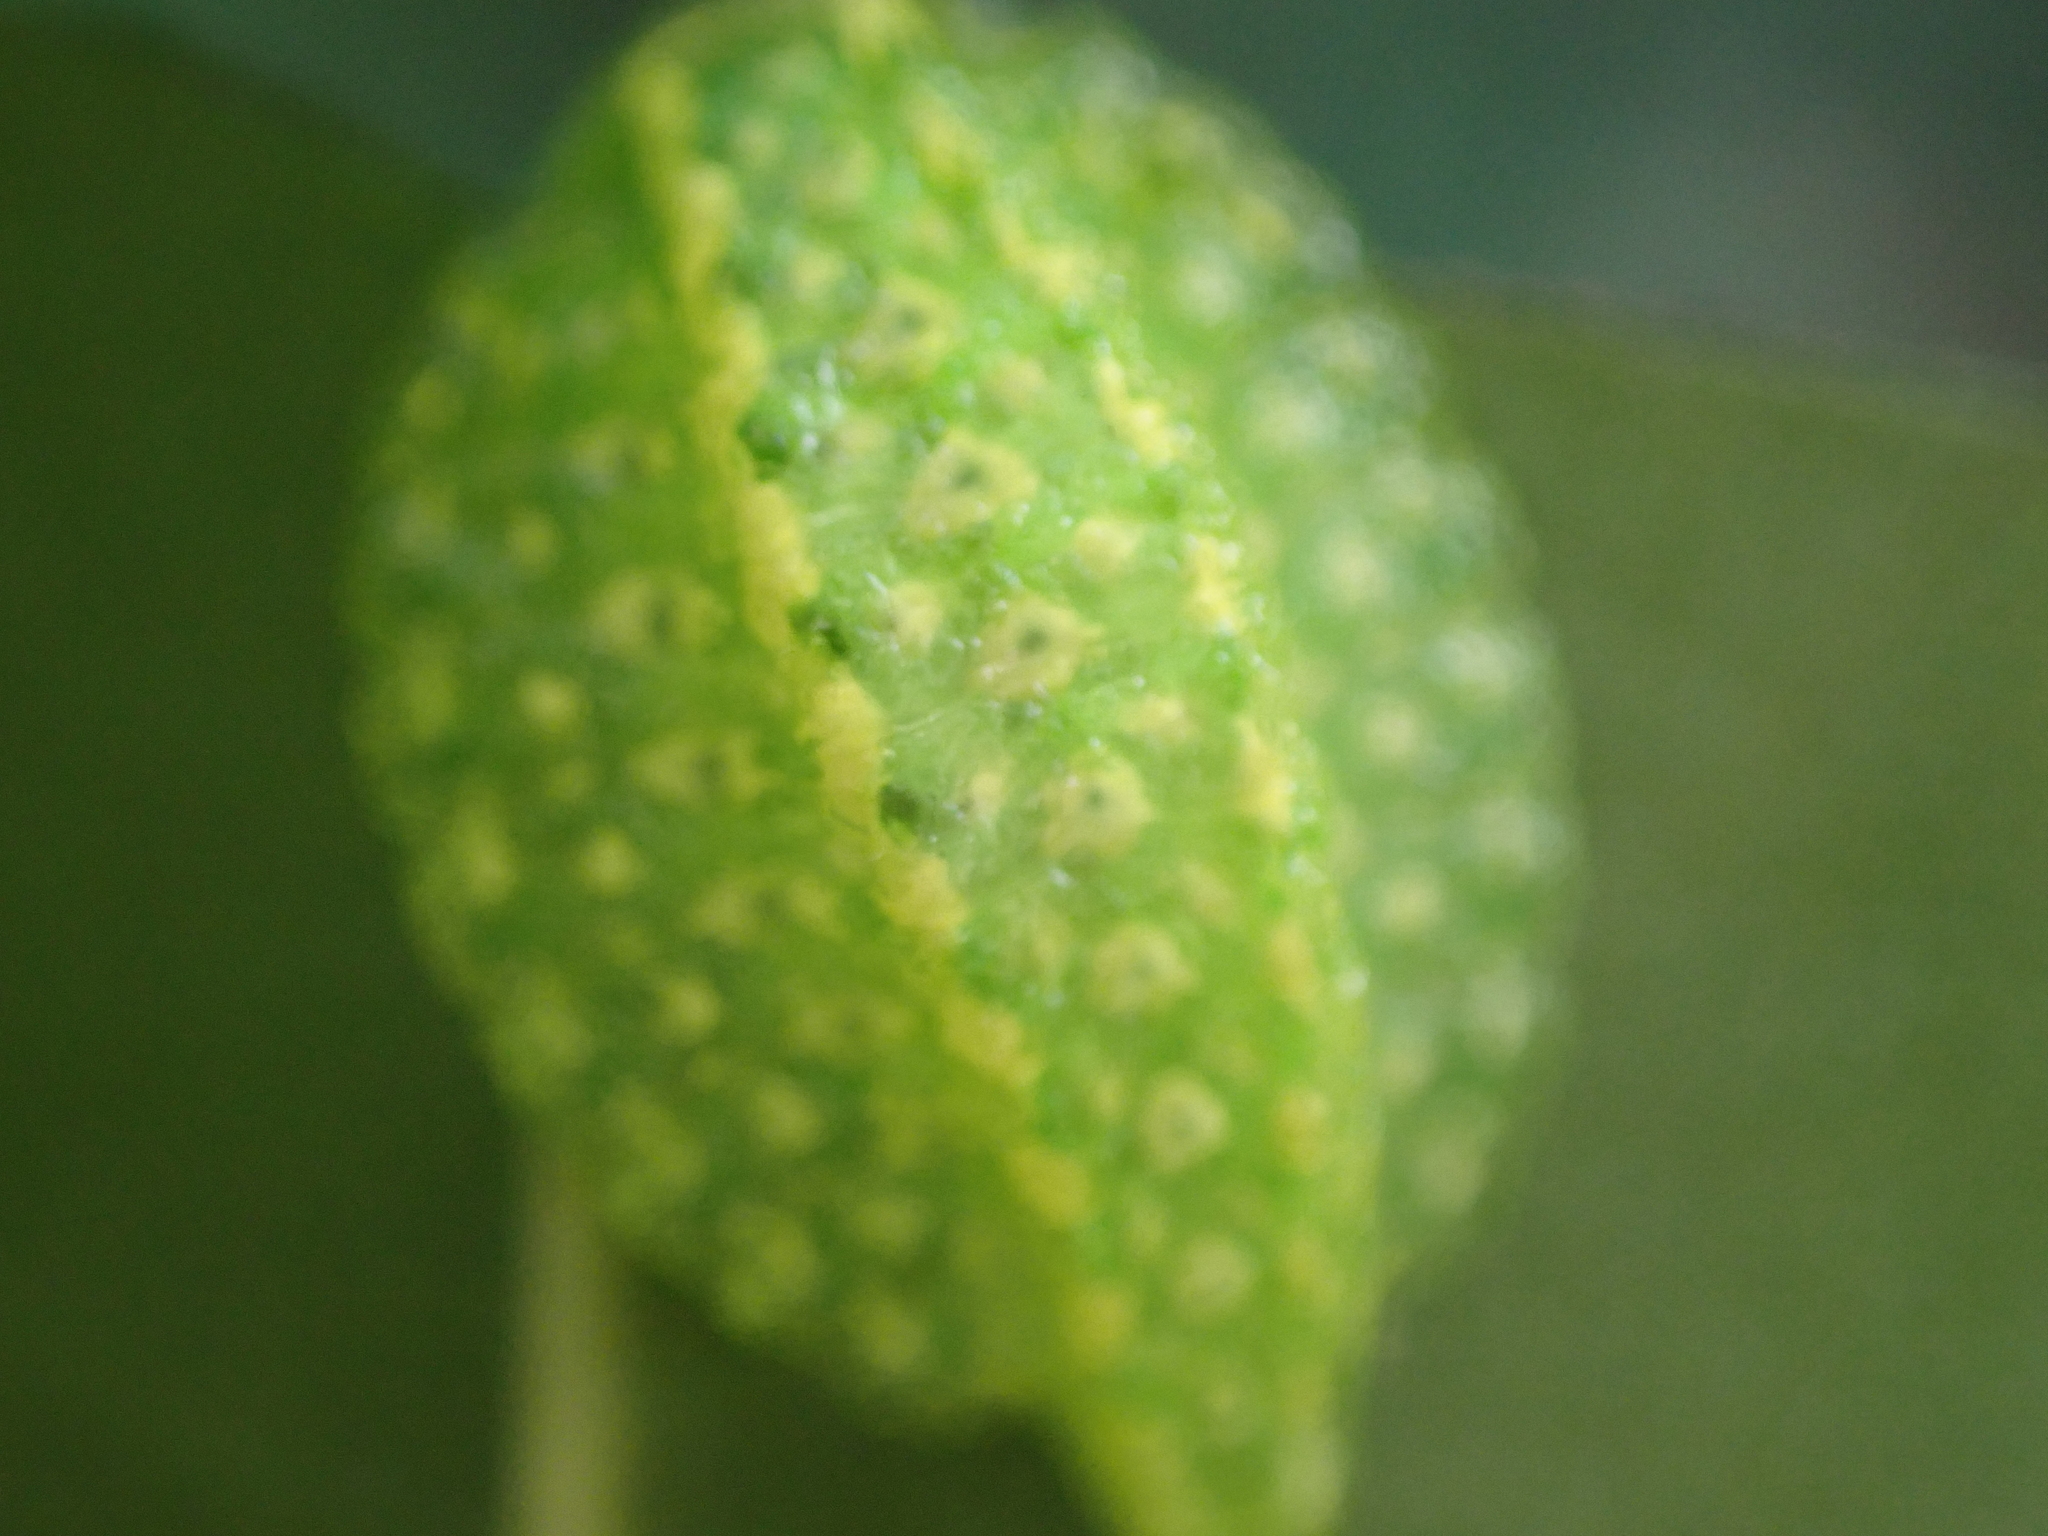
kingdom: Animalia
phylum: Arthropoda
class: Insecta
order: Lepidoptera
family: Limacodidae
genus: Lithacodes
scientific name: Lithacodes fasciola
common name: Yellow-shouldered slug moth
